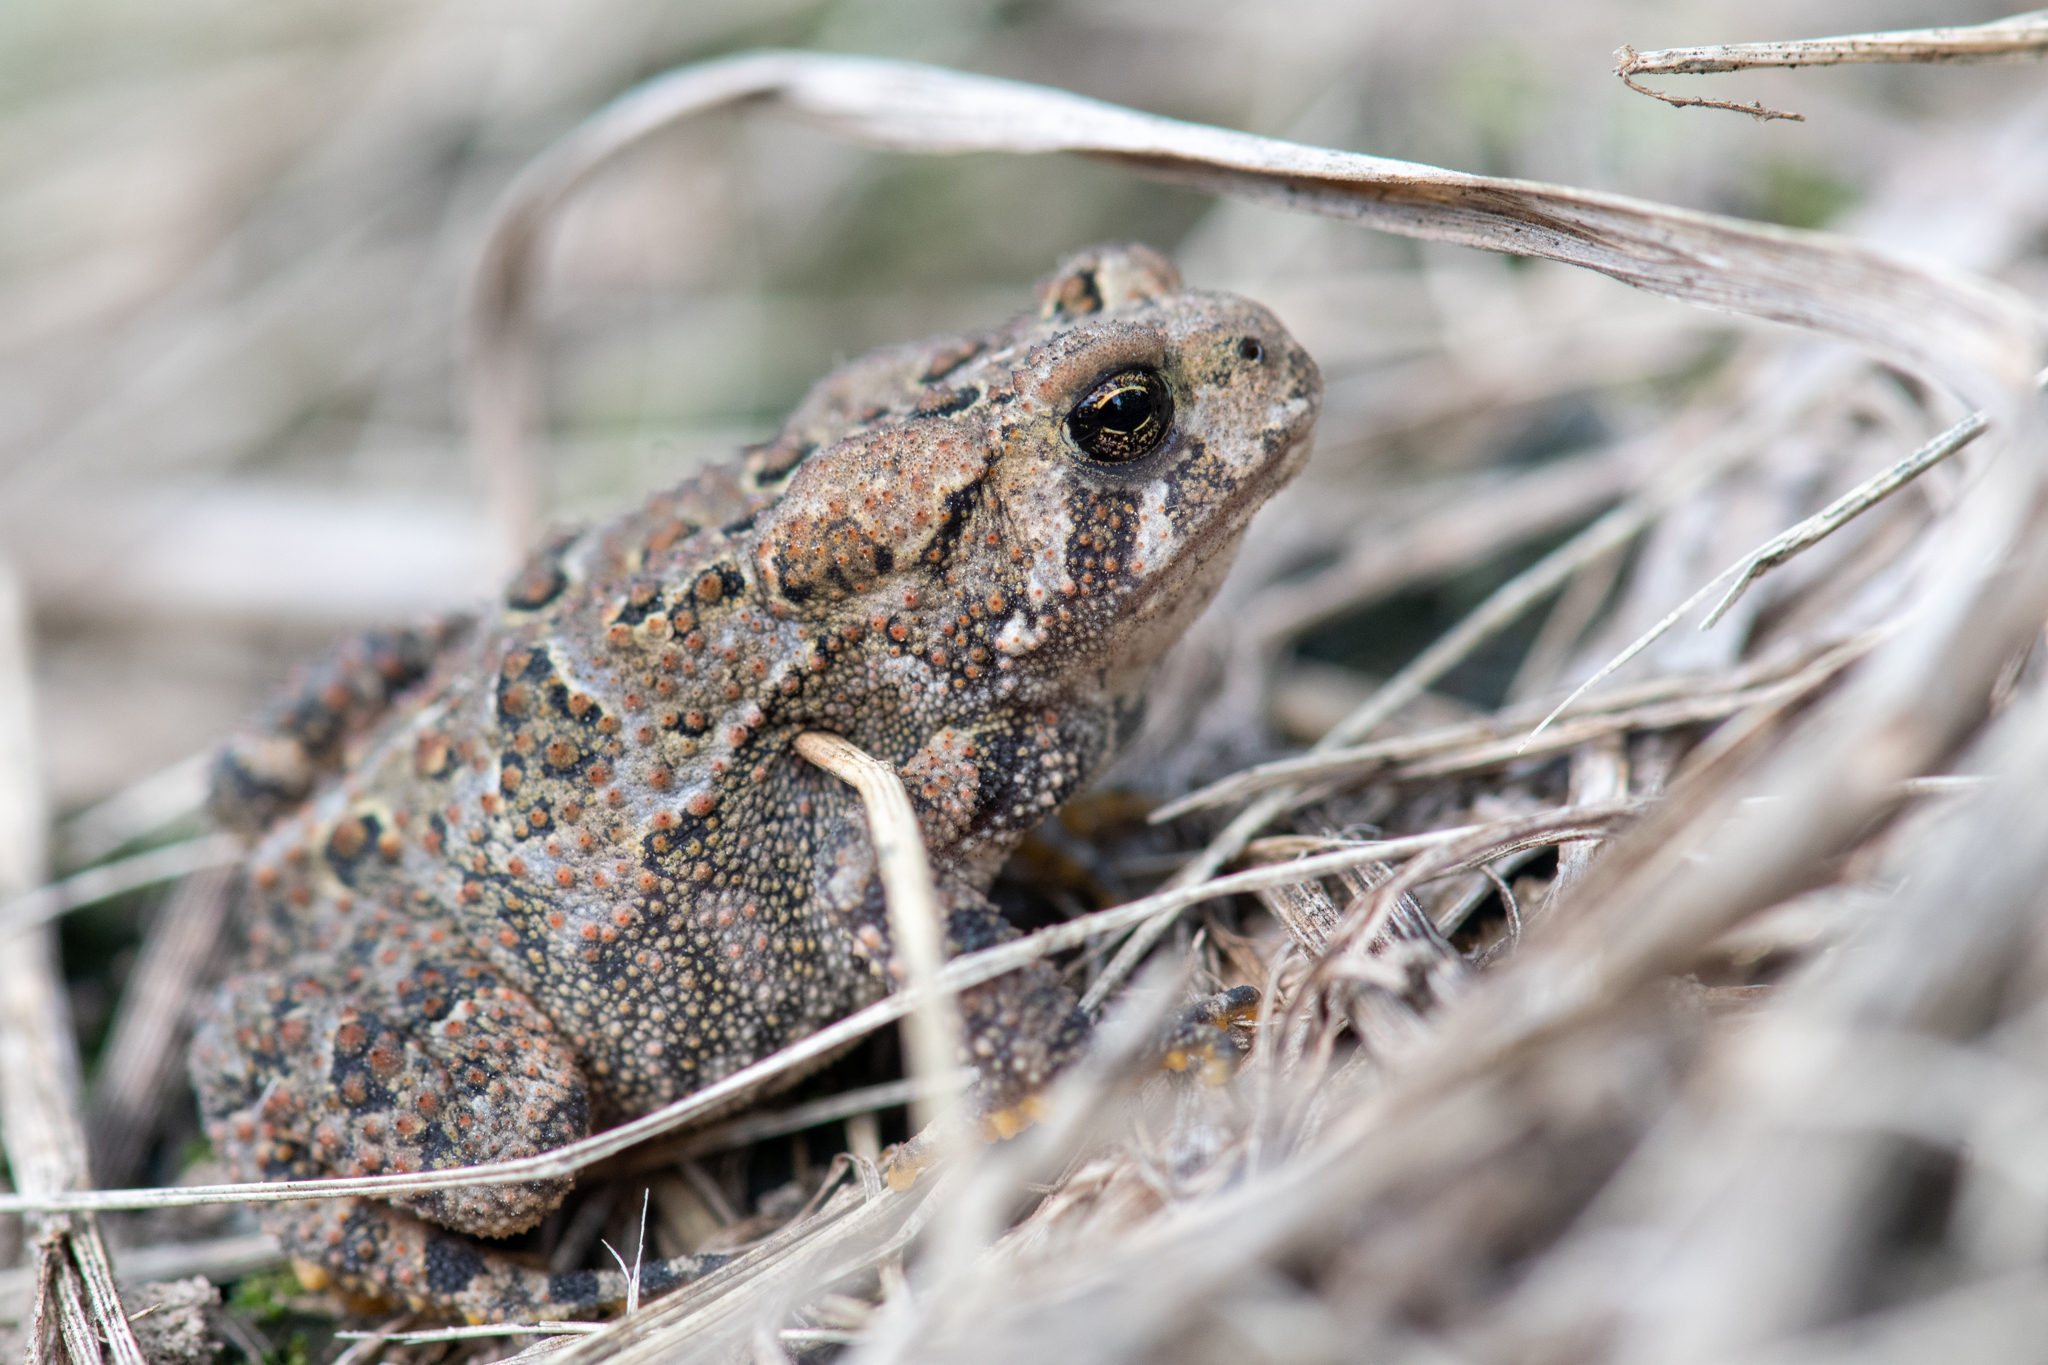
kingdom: Animalia
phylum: Chordata
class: Amphibia
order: Anura
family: Bufonidae
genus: Anaxyrus
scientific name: Anaxyrus americanus
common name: American toad
